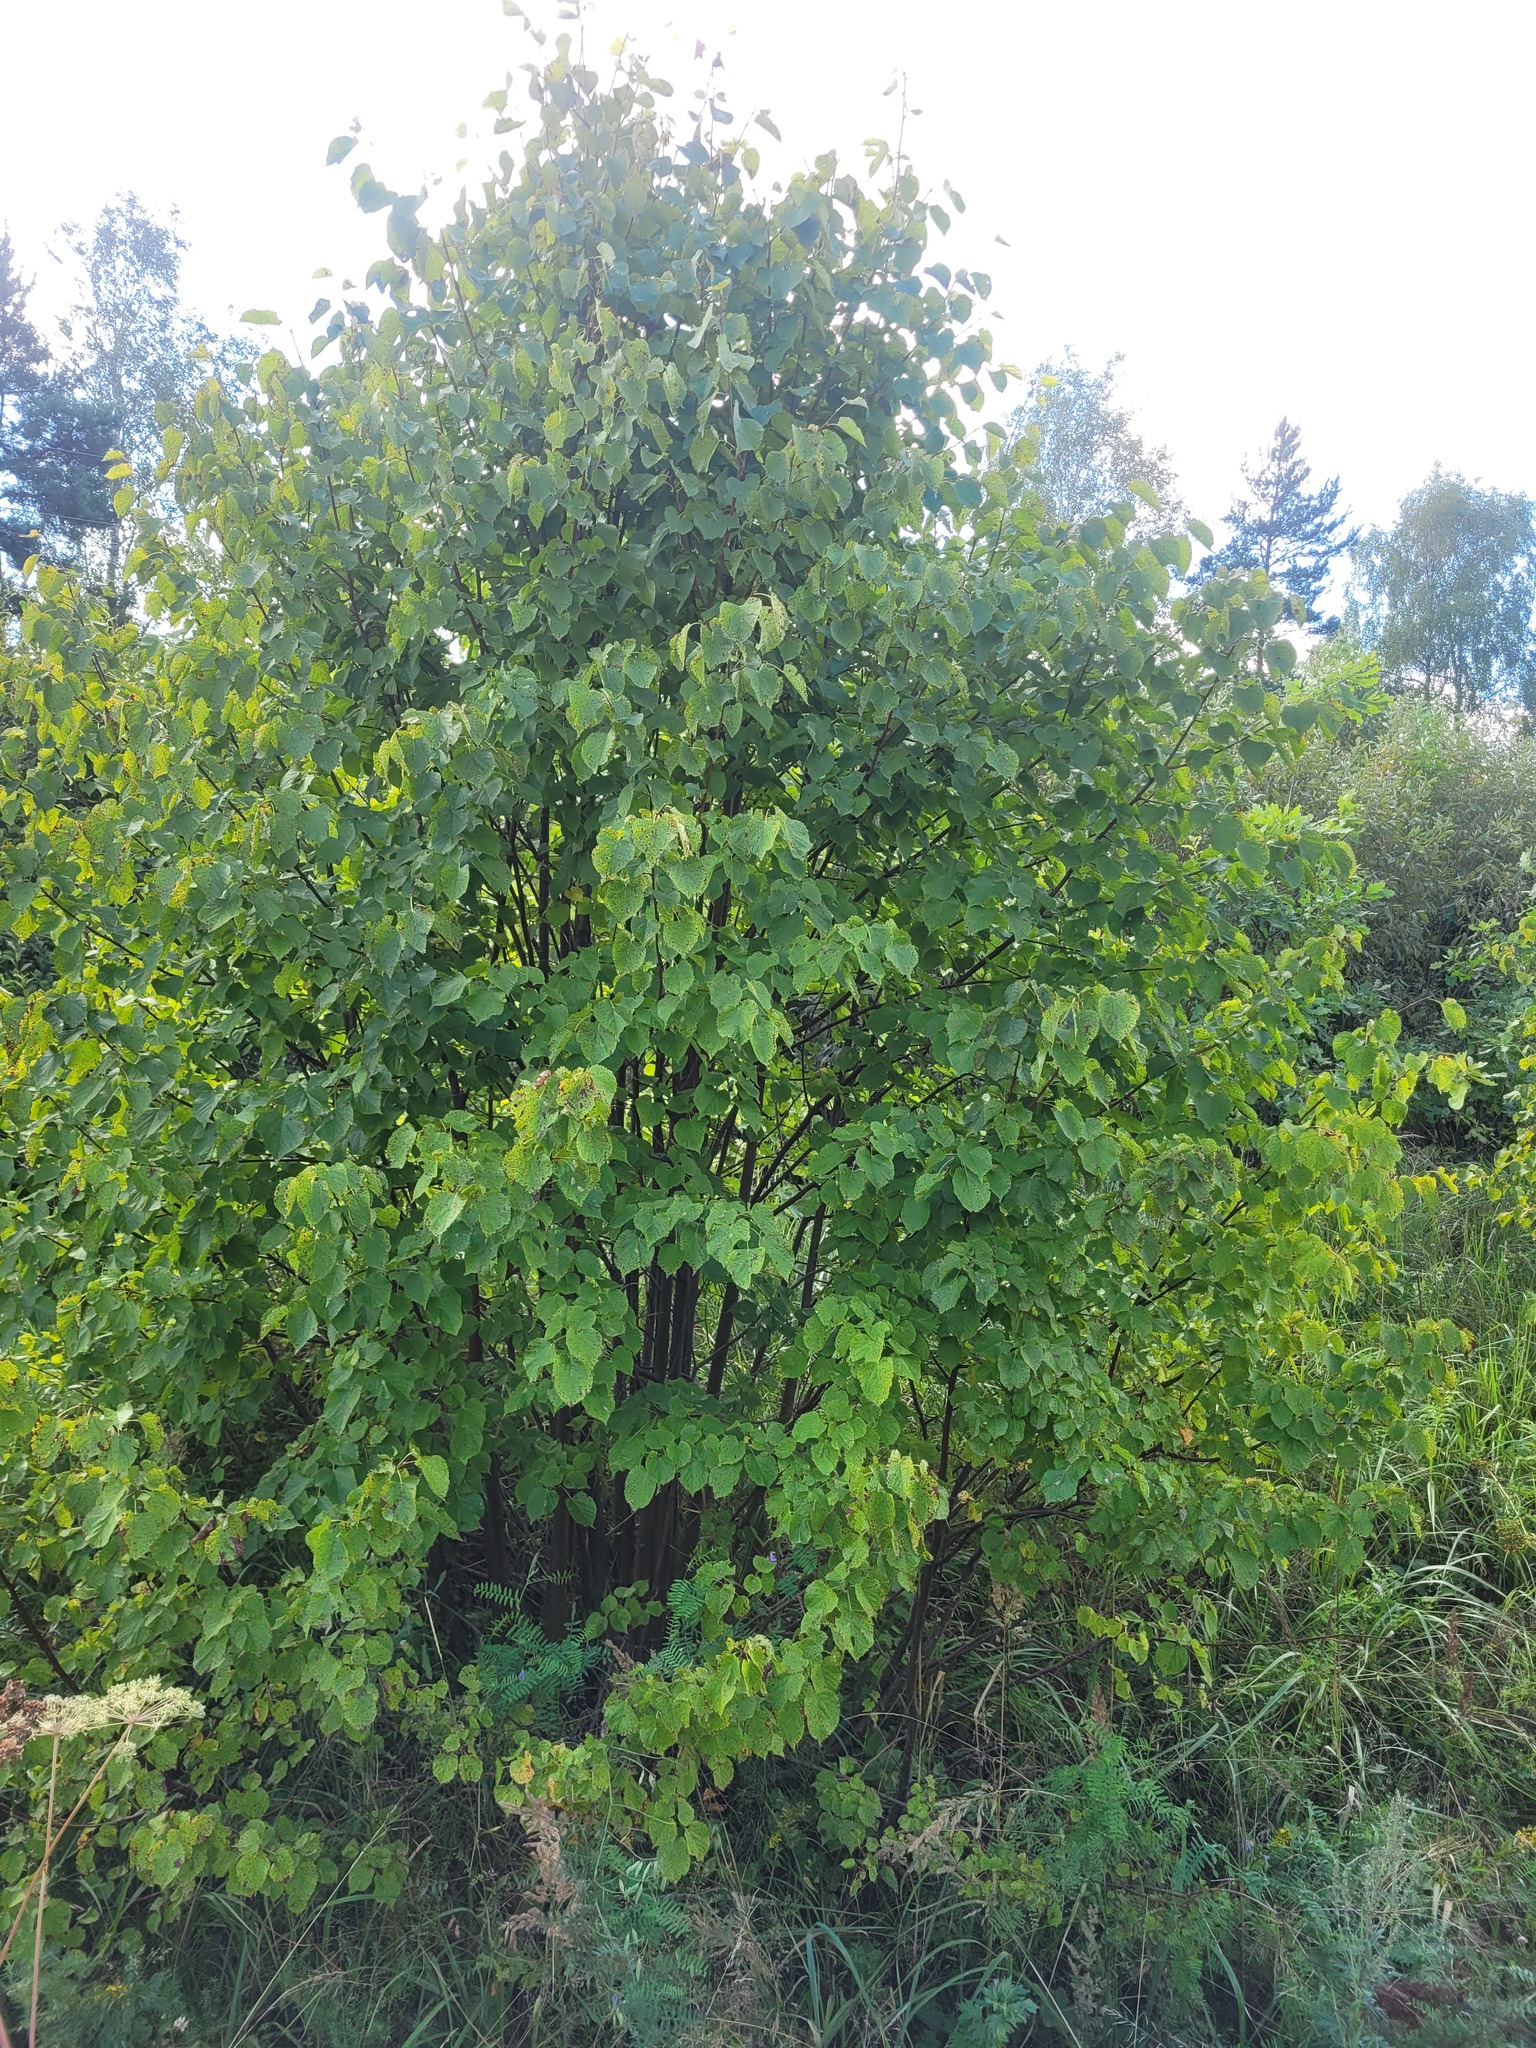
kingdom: Plantae
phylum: Tracheophyta
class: Magnoliopsida
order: Malvales
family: Malvaceae
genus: Tilia
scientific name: Tilia cordata
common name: Small-leaved lime
